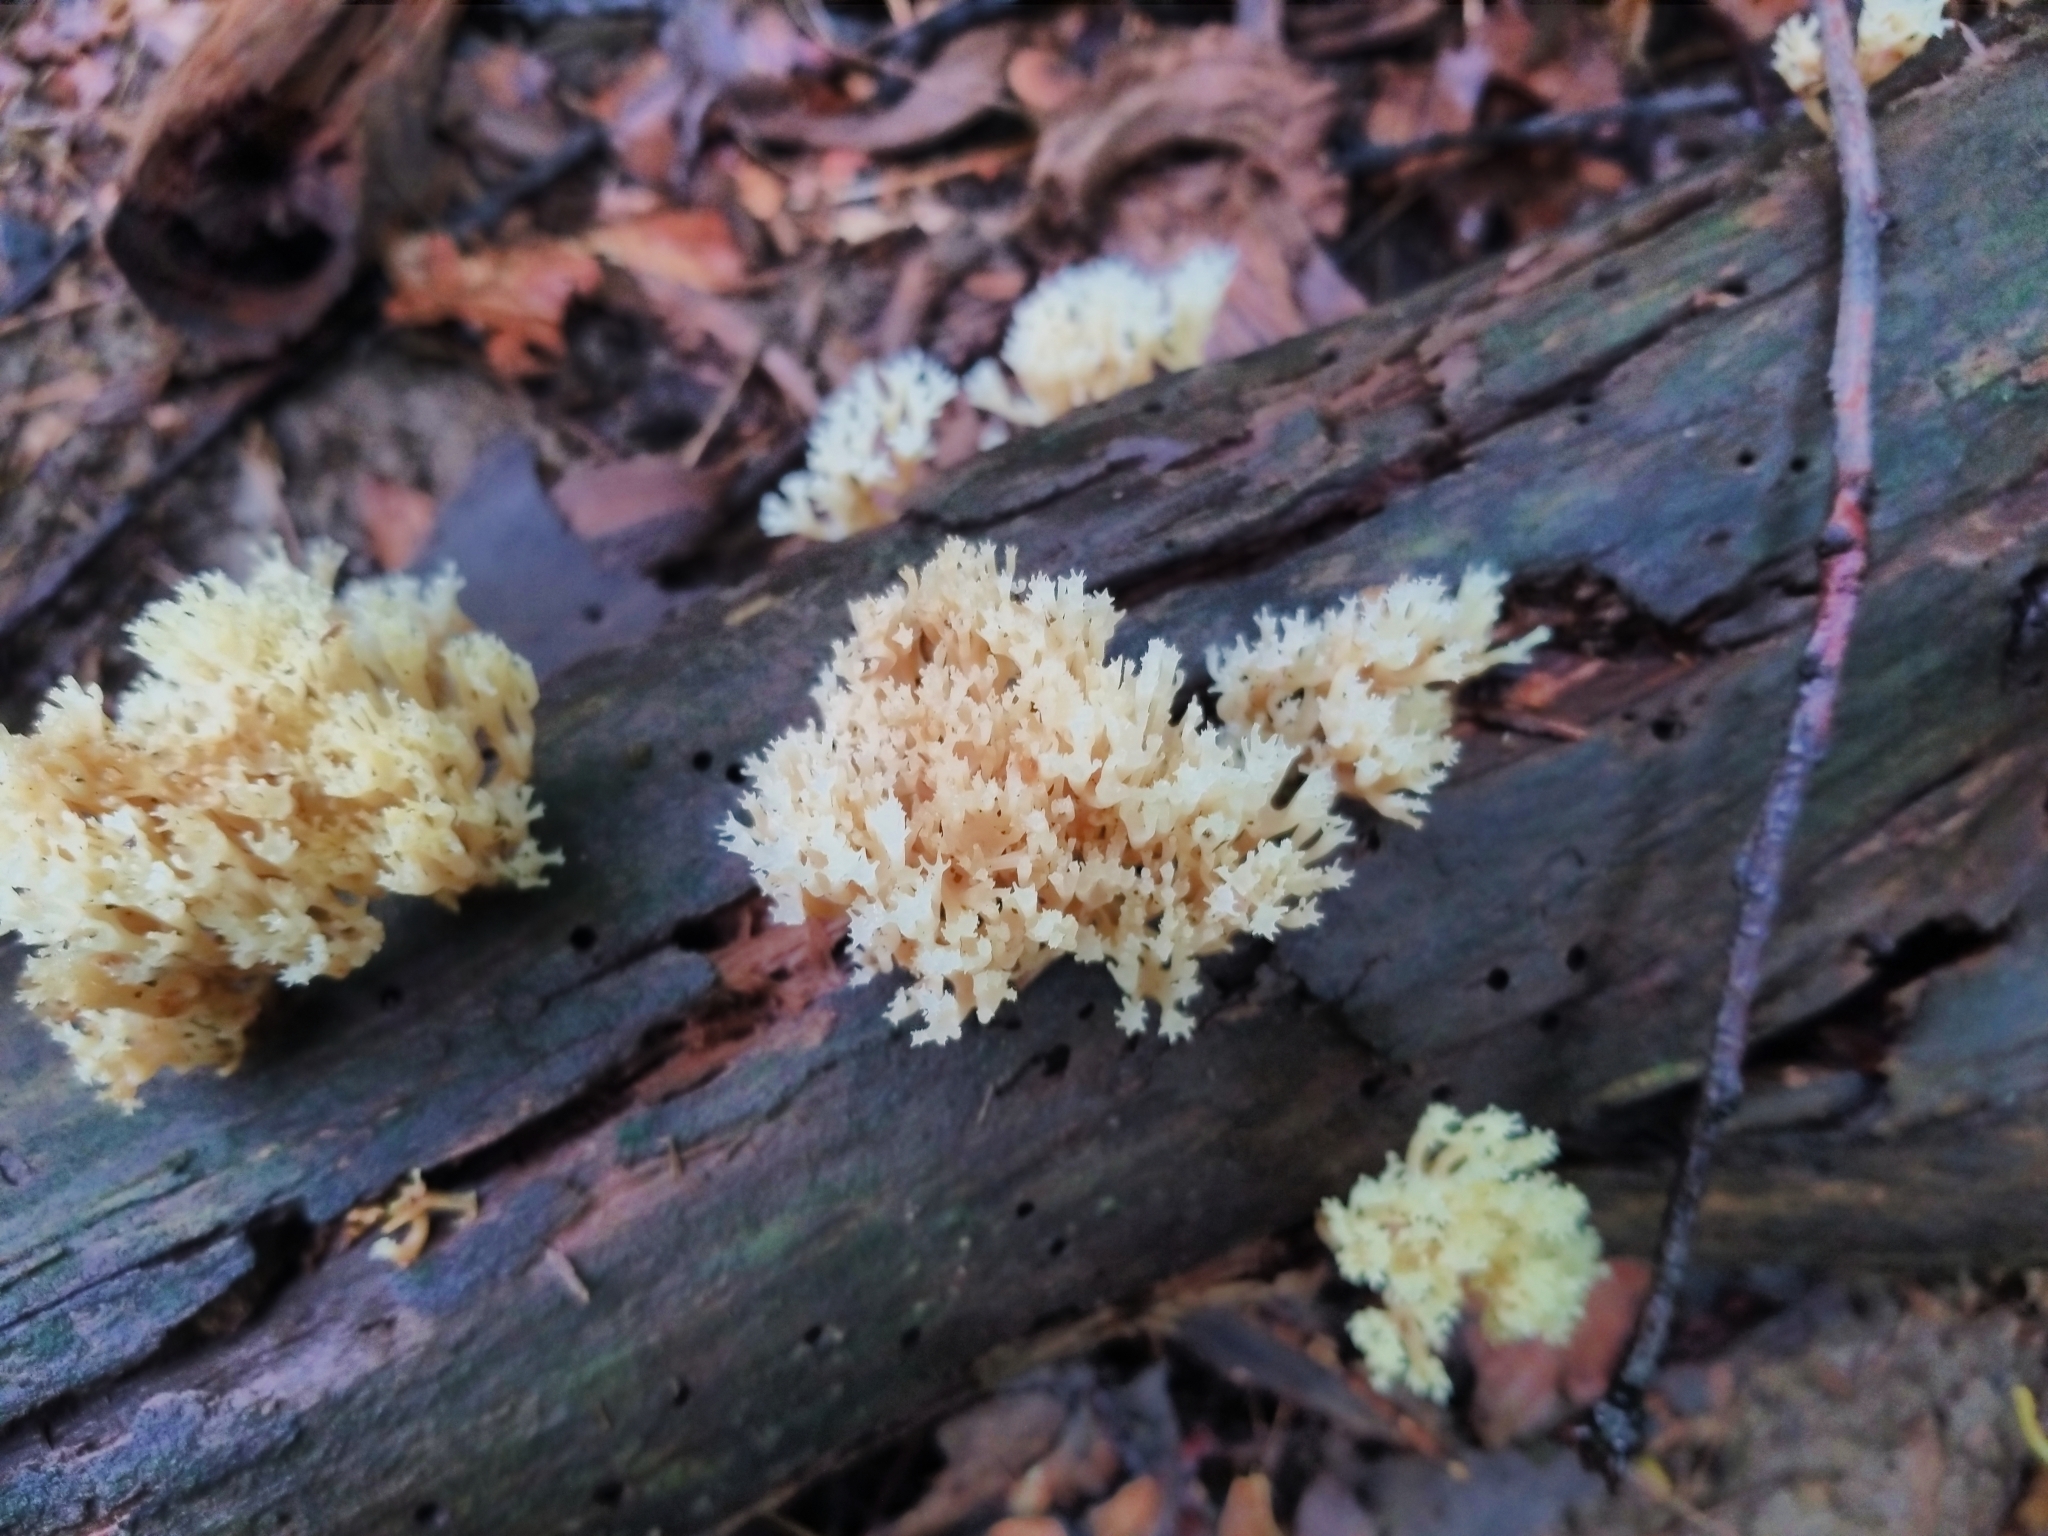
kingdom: Fungi
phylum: Basidiomycota
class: Agaricomycetes
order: Russulales
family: Auriscalpiaceae
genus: Artomyces
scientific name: Artomyces pyxidatus
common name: Crown-tipped coral fungus
